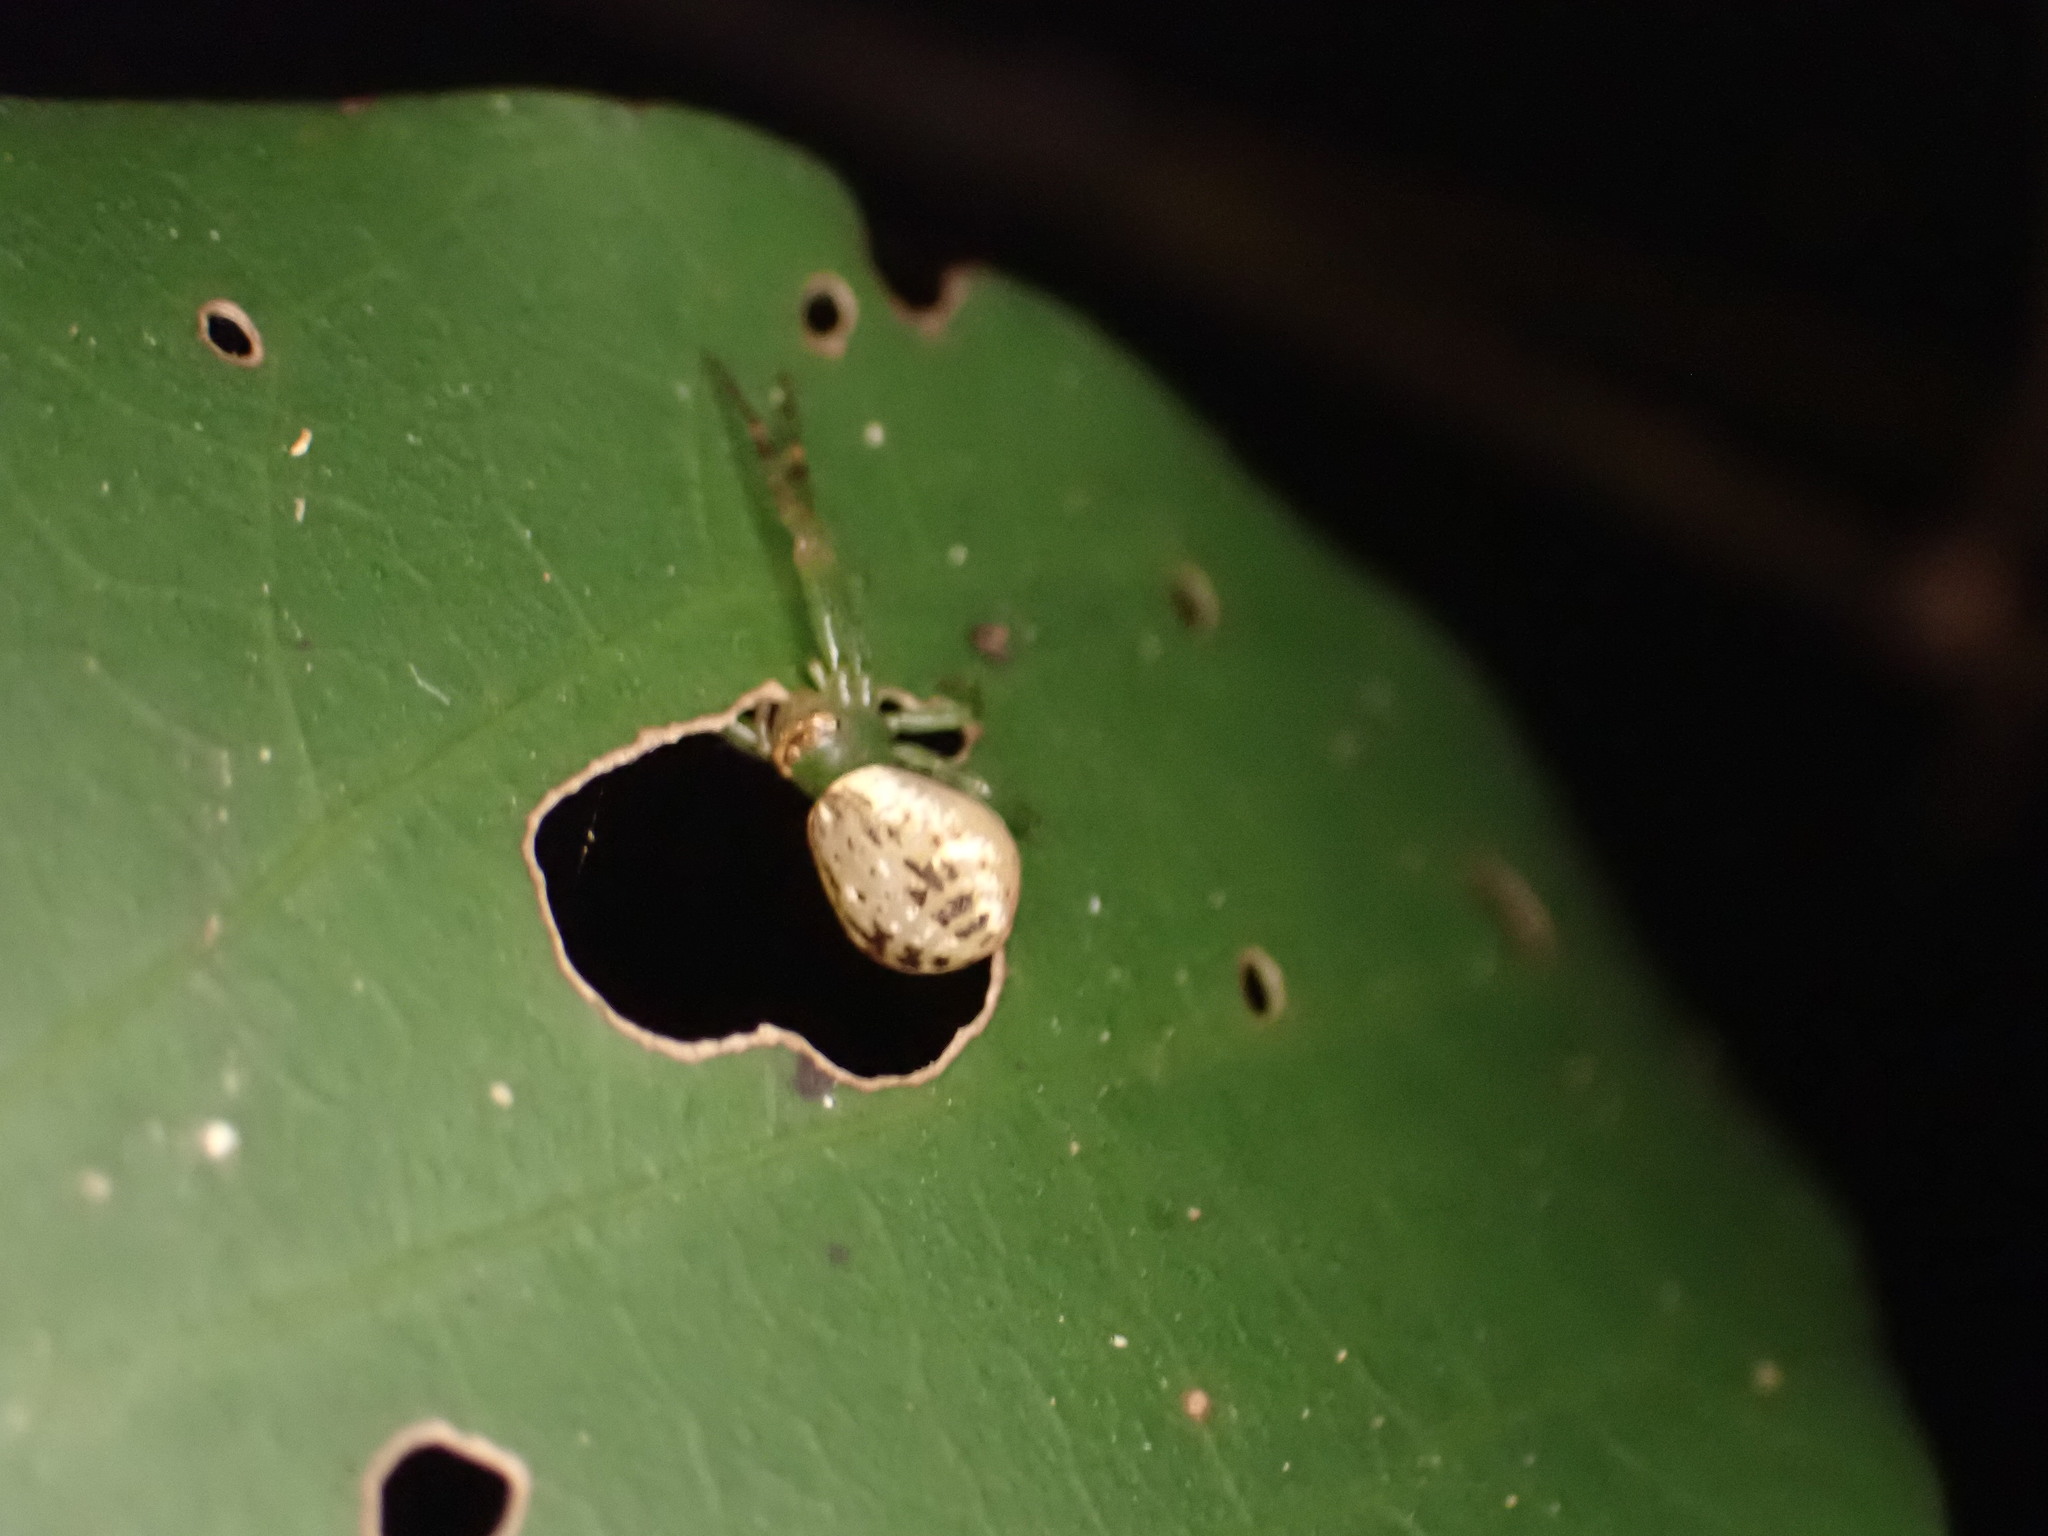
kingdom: Animalia
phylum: Arthropoda
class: Arachnida
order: Araneae
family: Thomisidae
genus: Diaea
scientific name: Diaea ambara
